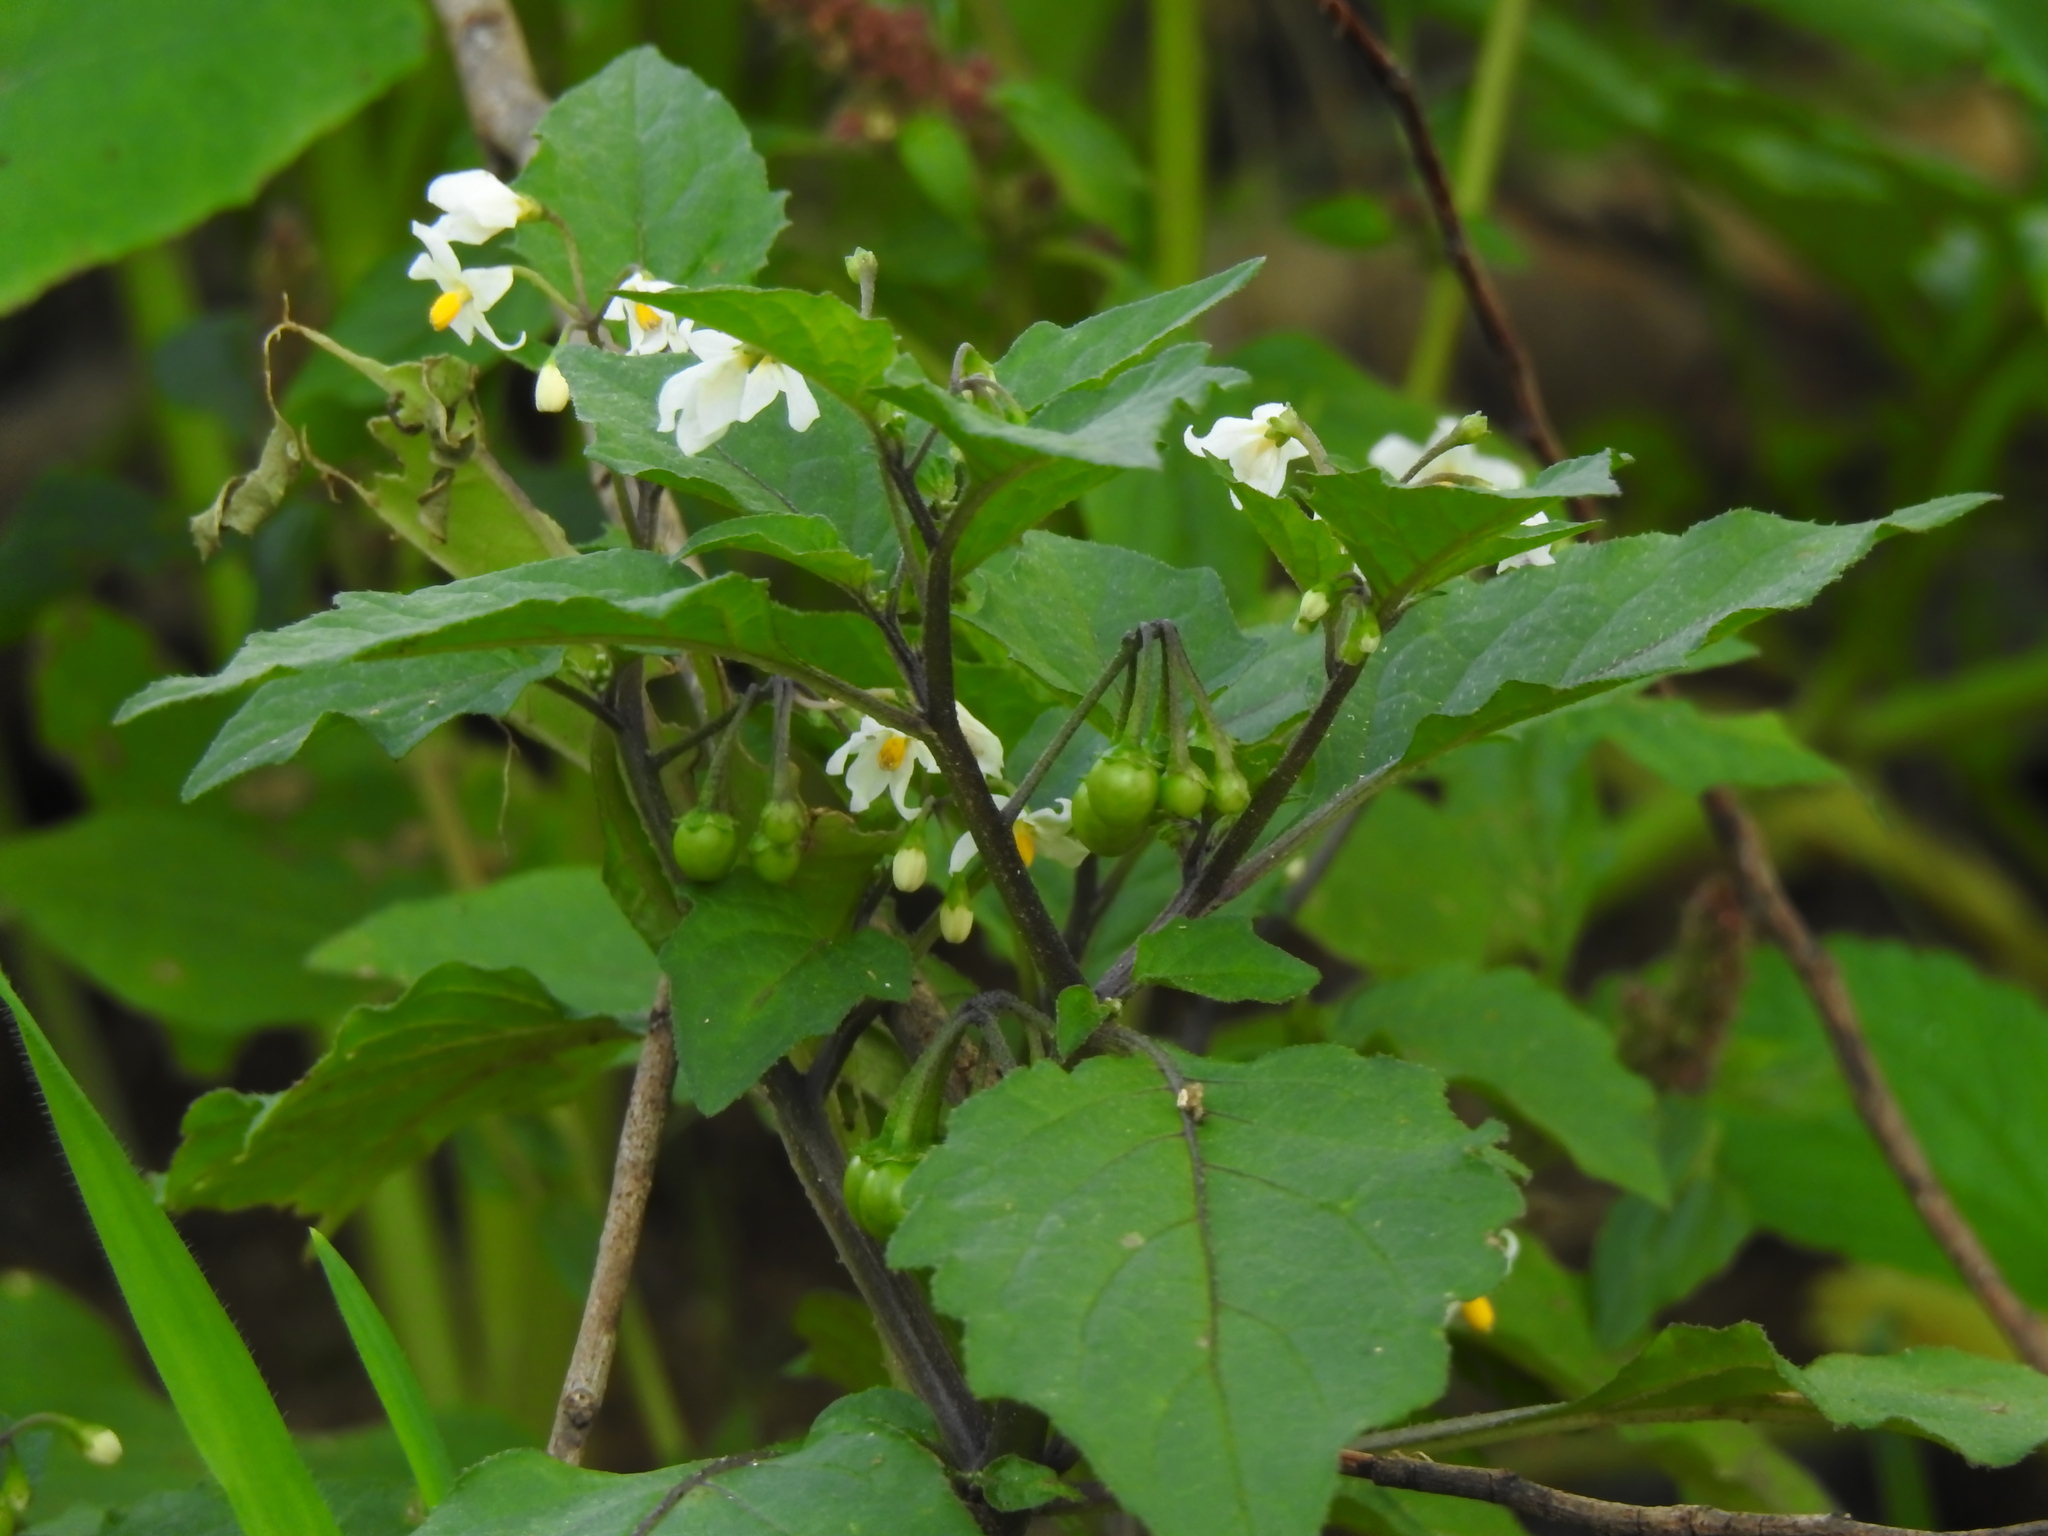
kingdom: Plantae
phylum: Tracheophyta
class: Magnoliopsida
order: Solanales
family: Solanaceae
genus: Solanum
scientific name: Solanum nigrum
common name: Black nightshade
